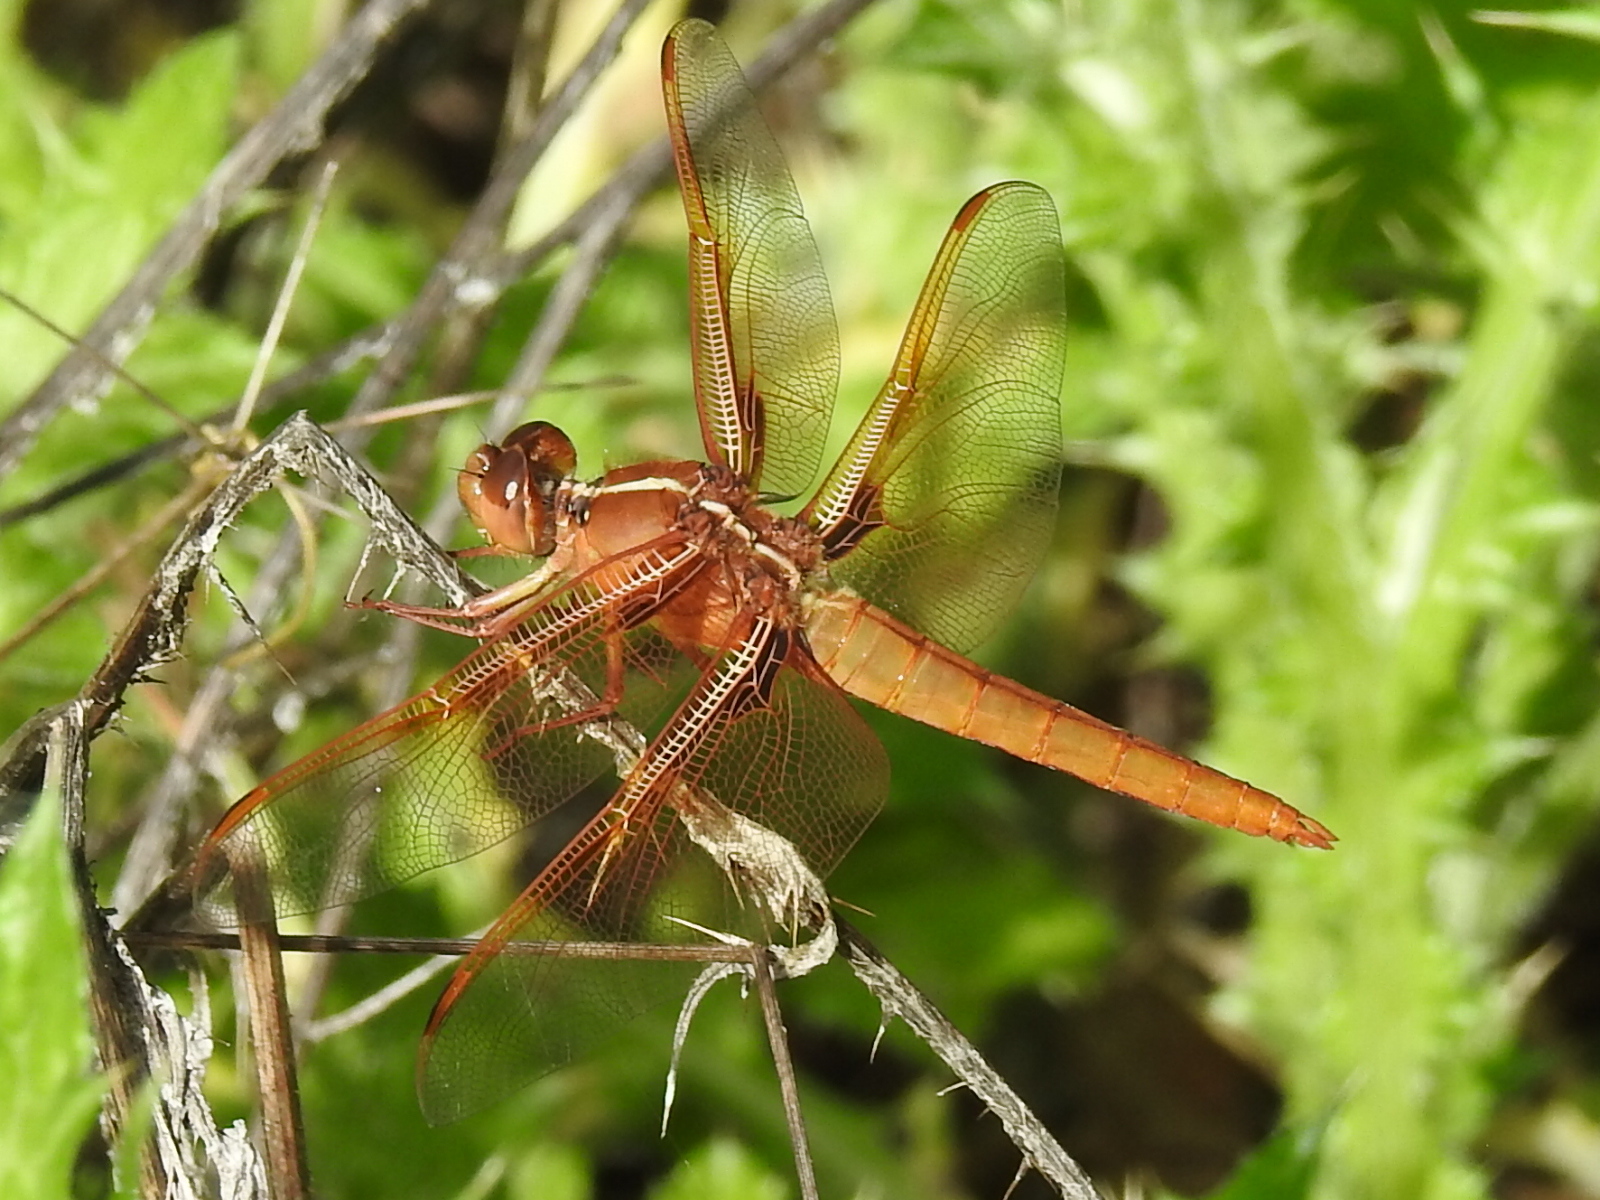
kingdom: Animalia
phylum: Arthropoda
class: Insecta
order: Odonata
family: Libellulidae
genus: Libellula
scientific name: Libellula saturata
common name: Flame skimmer
